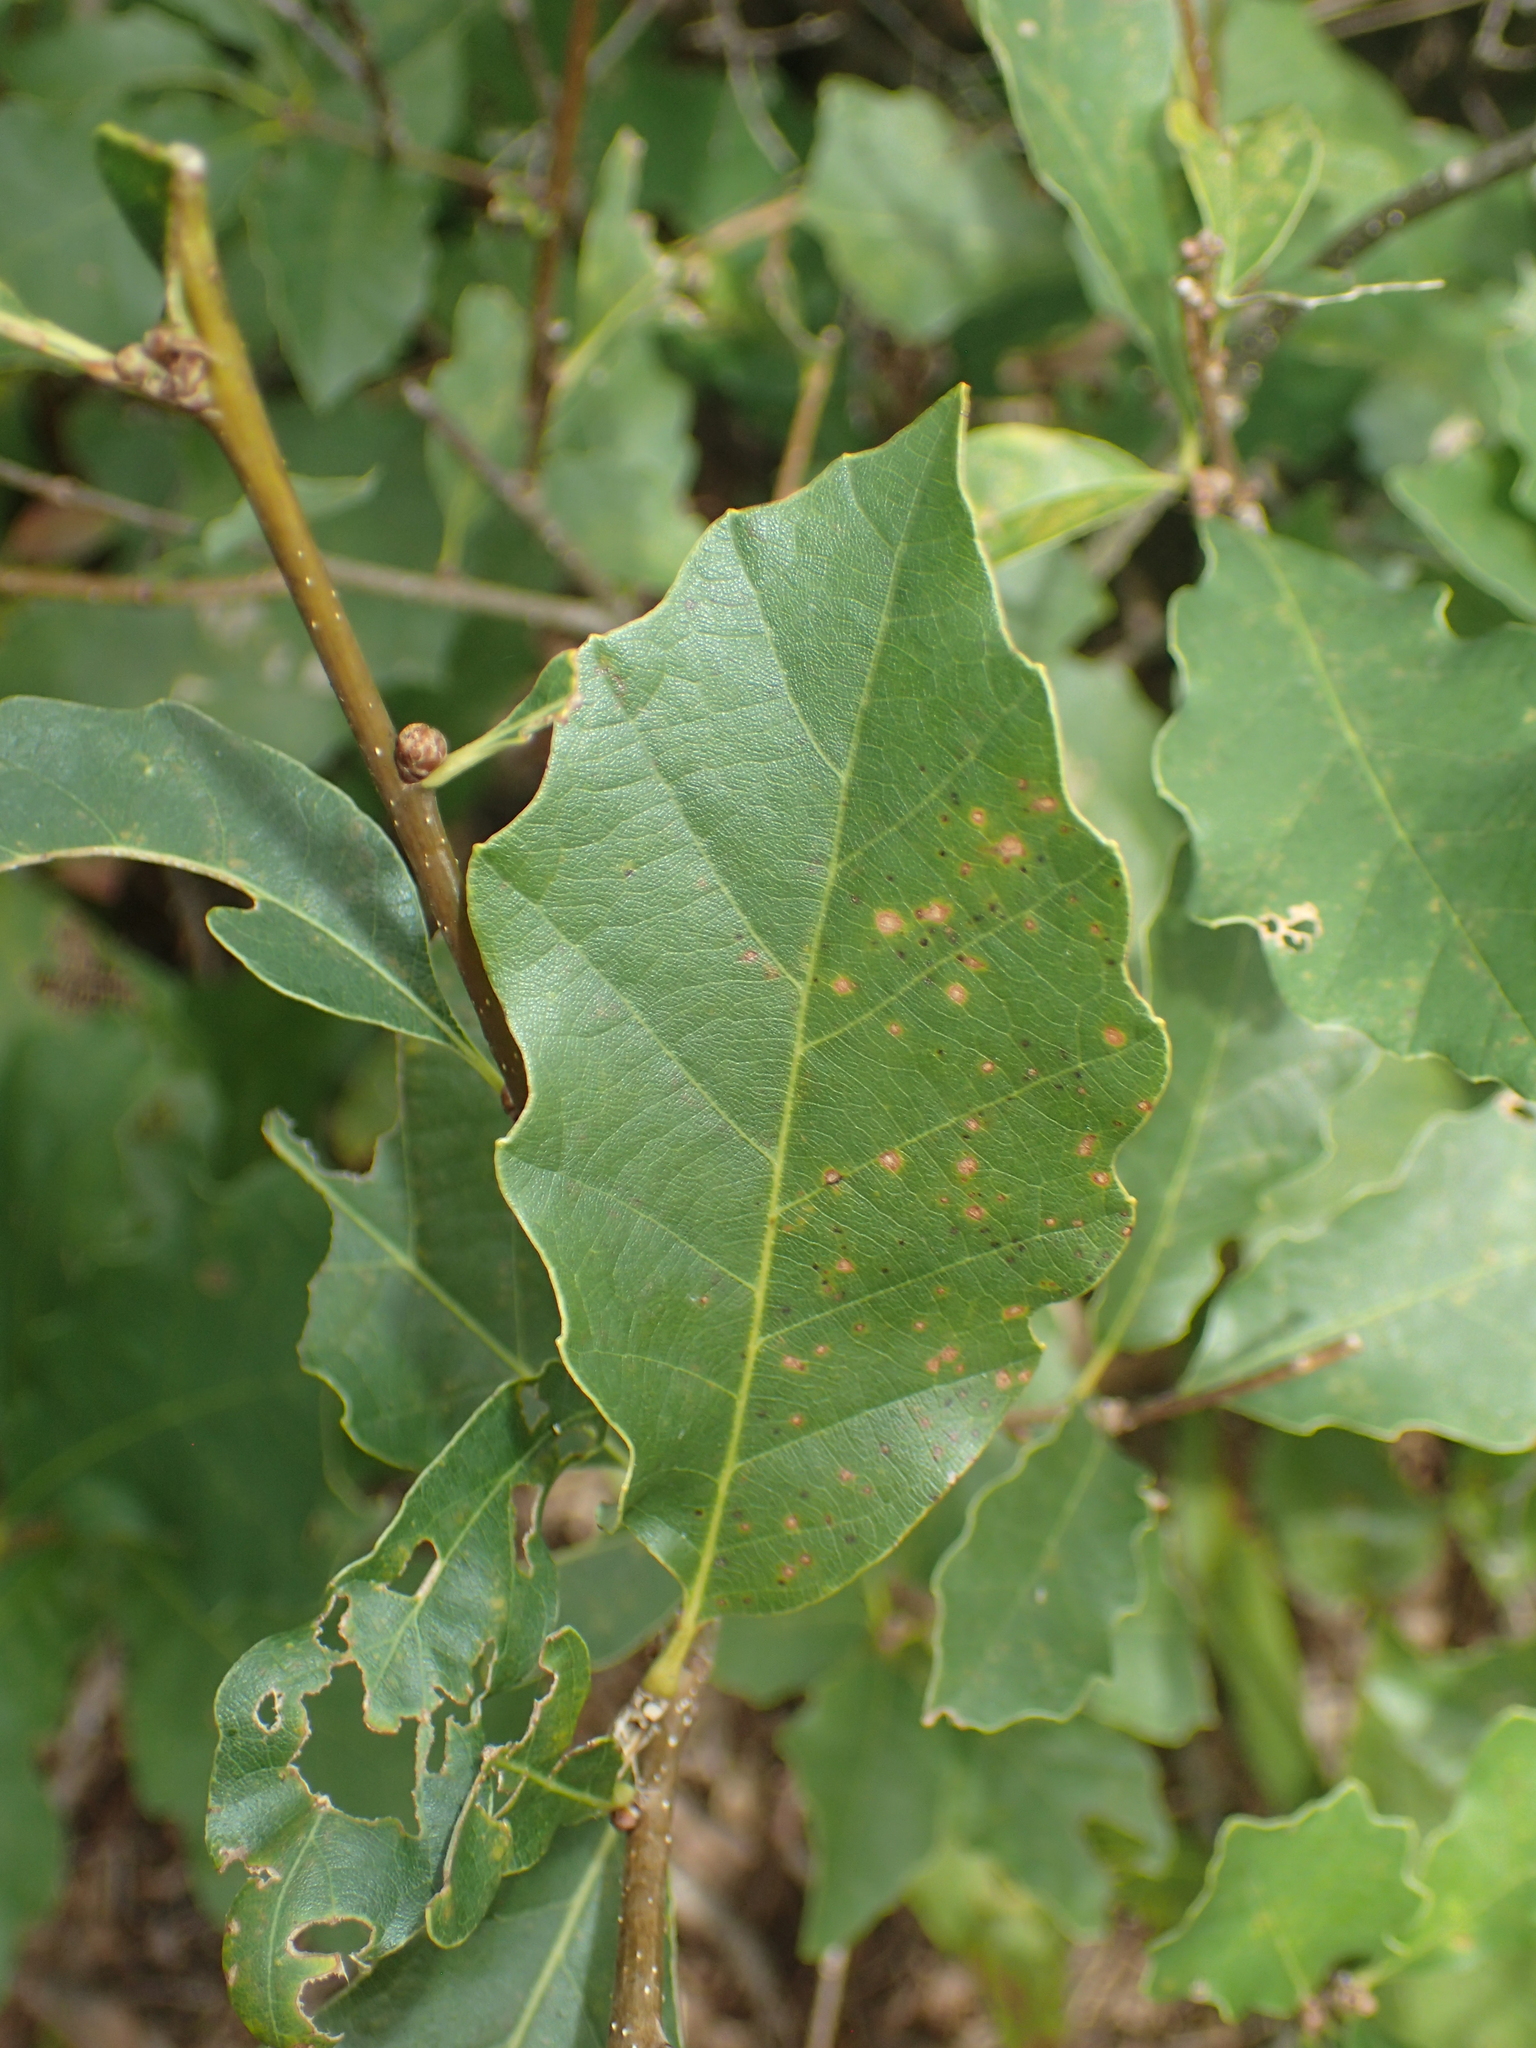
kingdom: Plantae
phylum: Tracheophyta
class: Magnoliopsida
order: Fagales
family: Fagaceae
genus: Quercus
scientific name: Quercus prinoides
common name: Dwarf chinkapin oak
